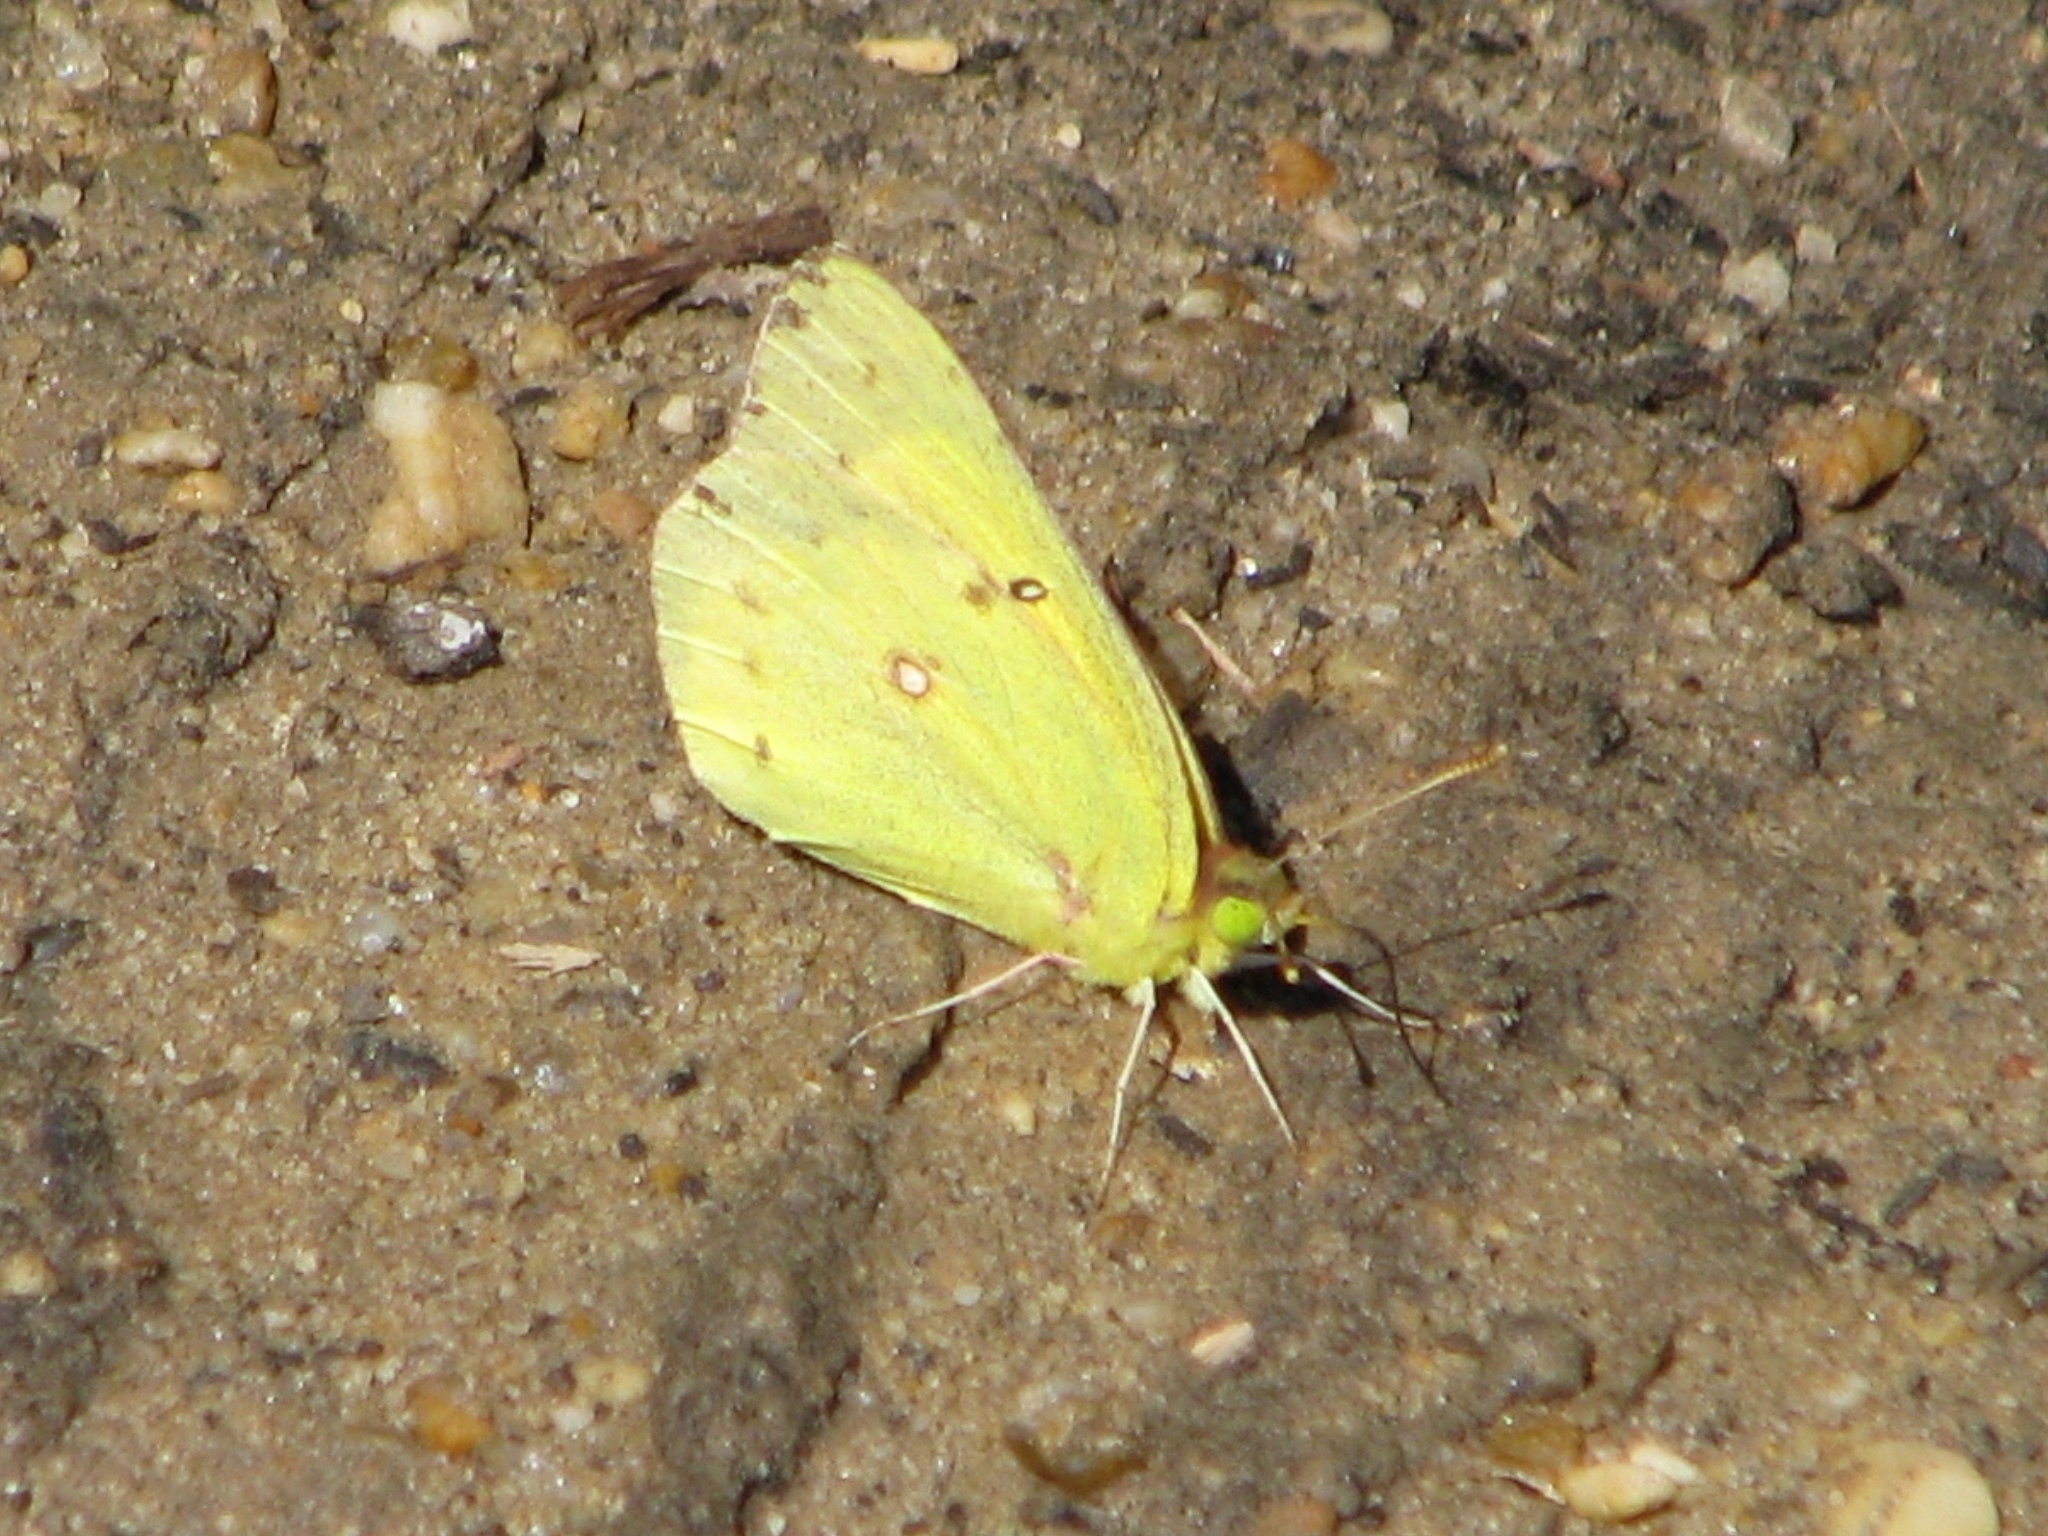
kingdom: Animalia
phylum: Arthropoda
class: Insecta
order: Lepidoptera
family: Pieridae
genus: Colias
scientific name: Colias philodice
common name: Clouded sulphur
